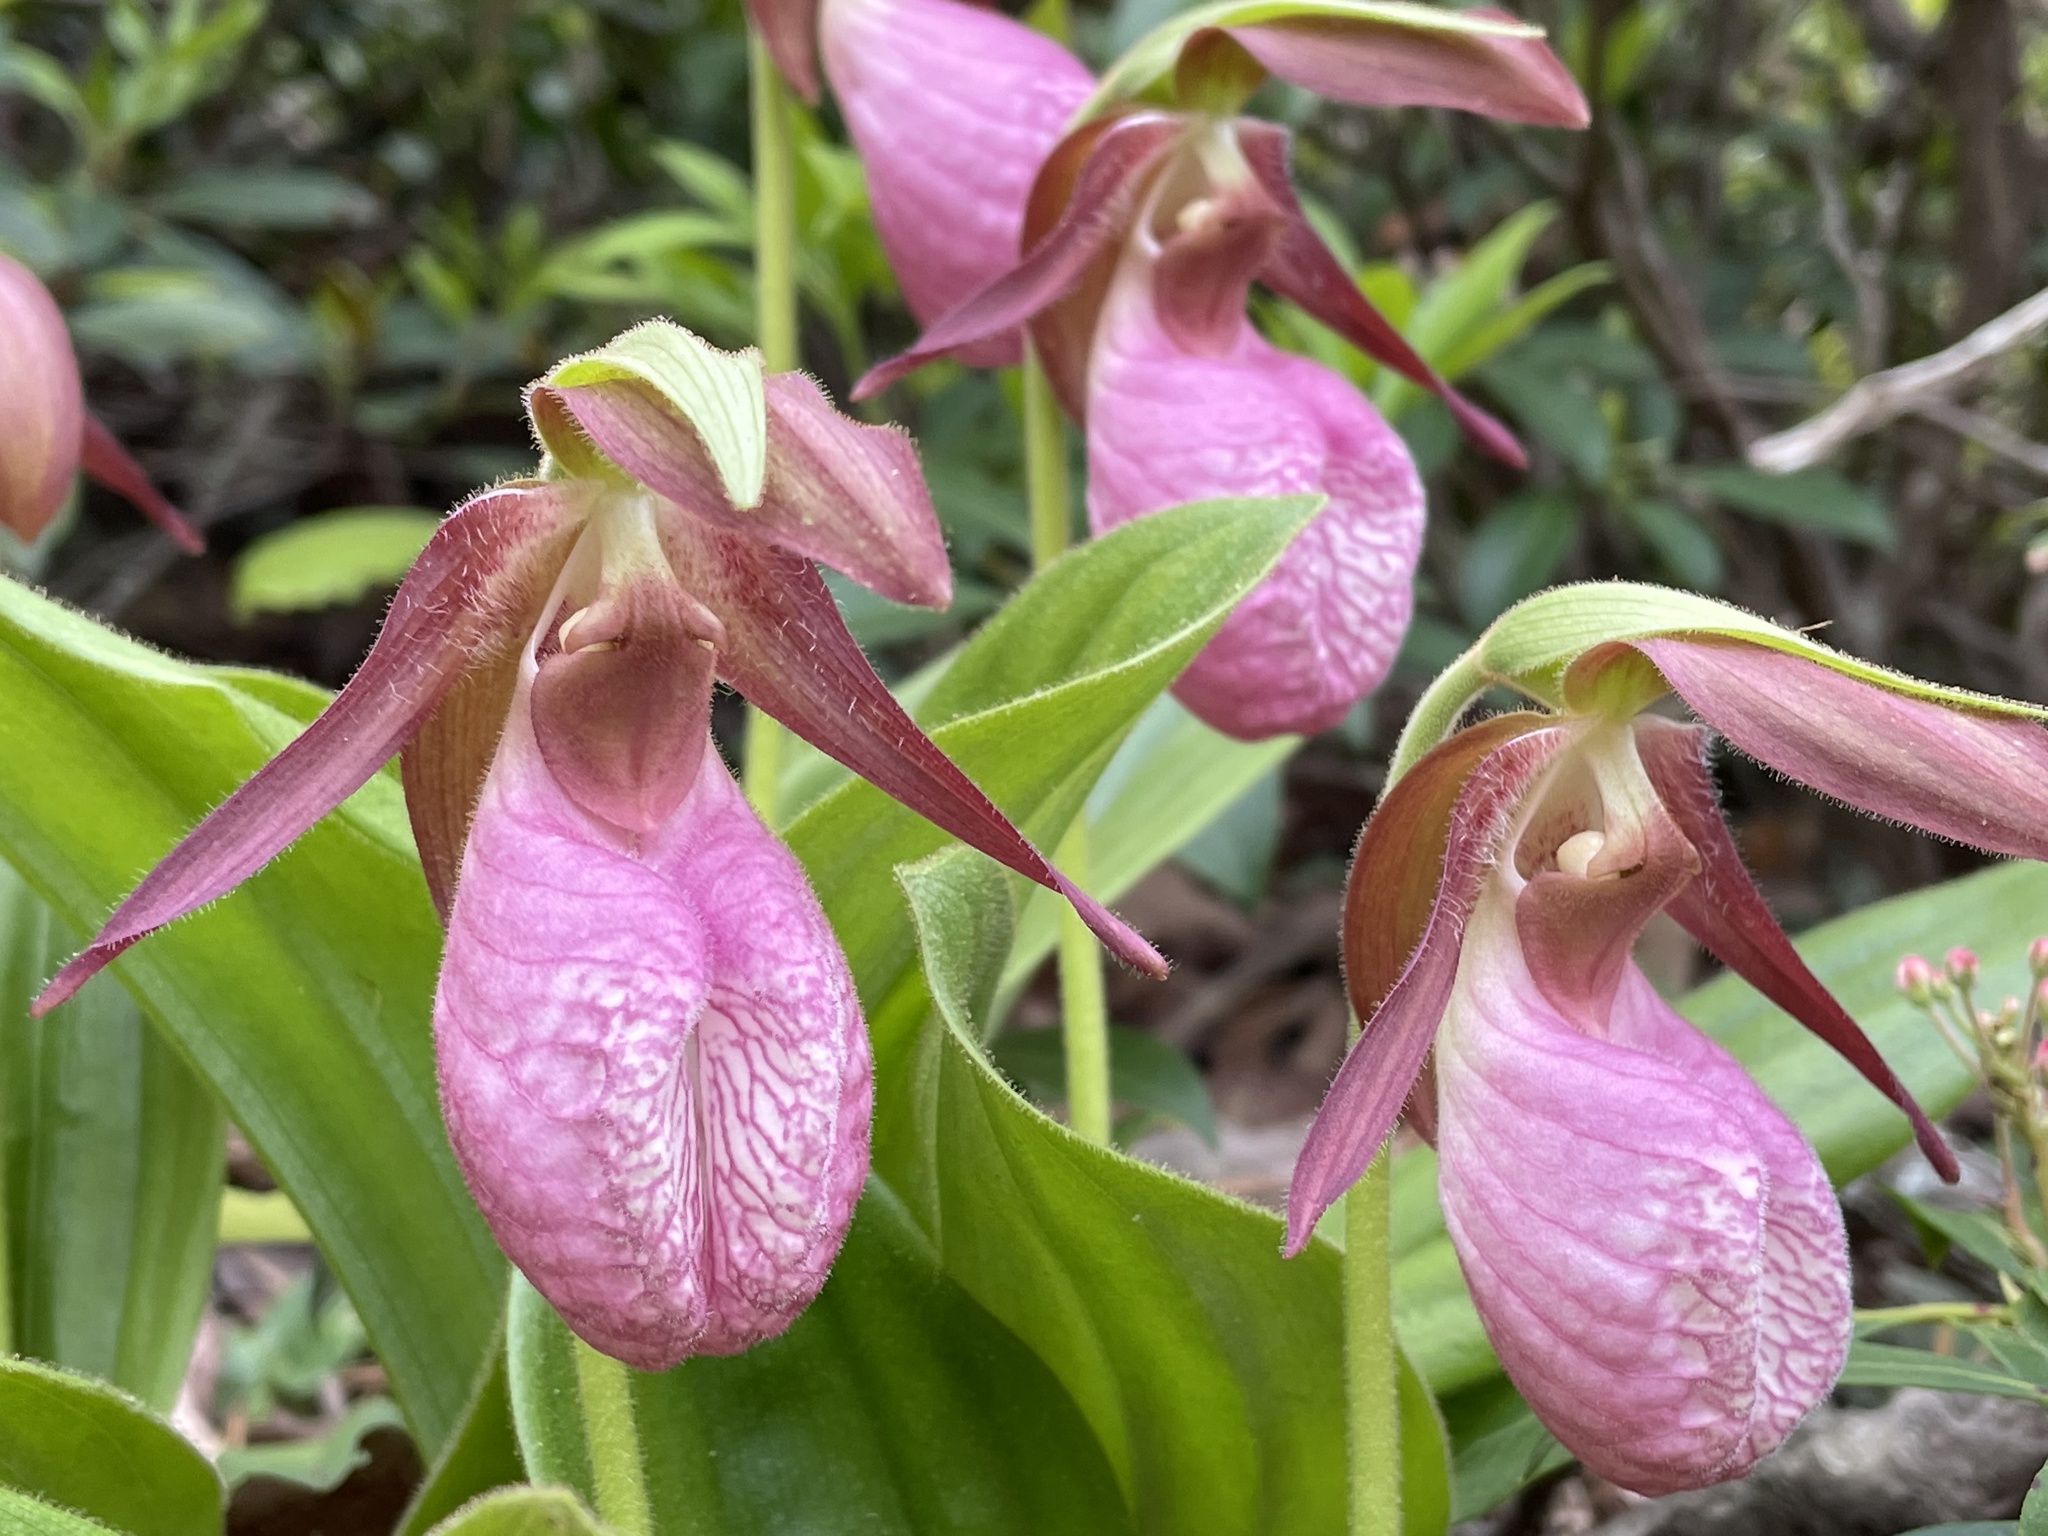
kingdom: Plantae
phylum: Tracheophyta
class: Liliopsida
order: Asparagales
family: Orchidaceae
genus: Cypripedium
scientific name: Cypripedium acaule
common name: Pink lady's-slipper
